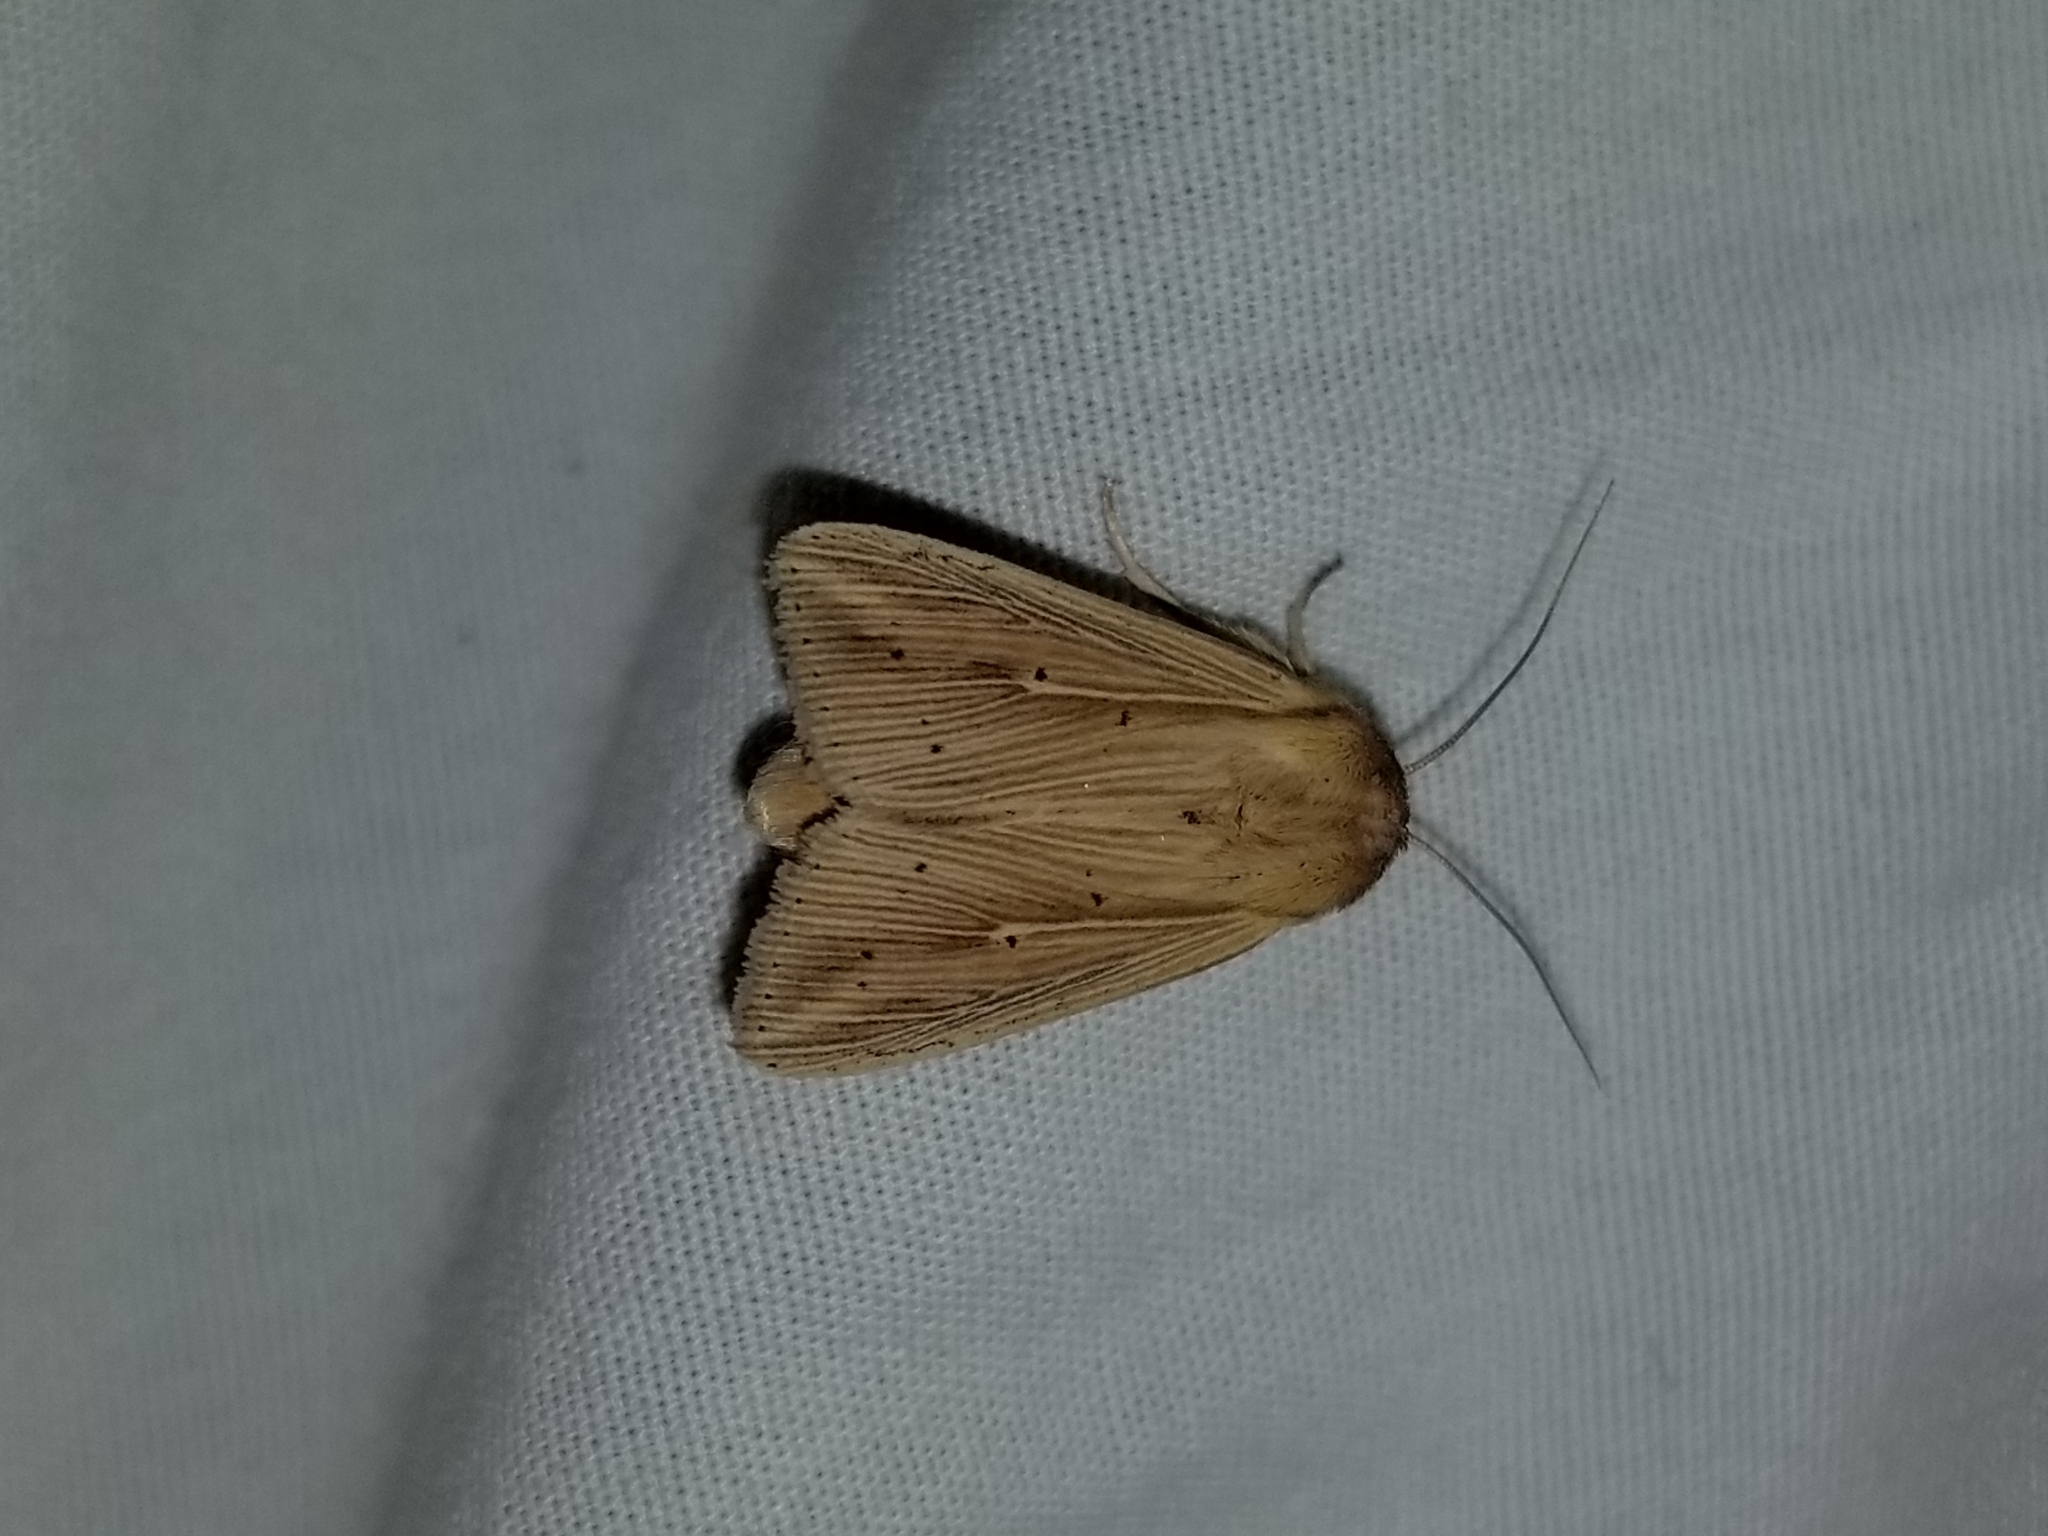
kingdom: Animalia
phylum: Arthropoda
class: Insecta
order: Lepidoptera
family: Noctuidae
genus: Leucania
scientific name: Leucania adjuta
